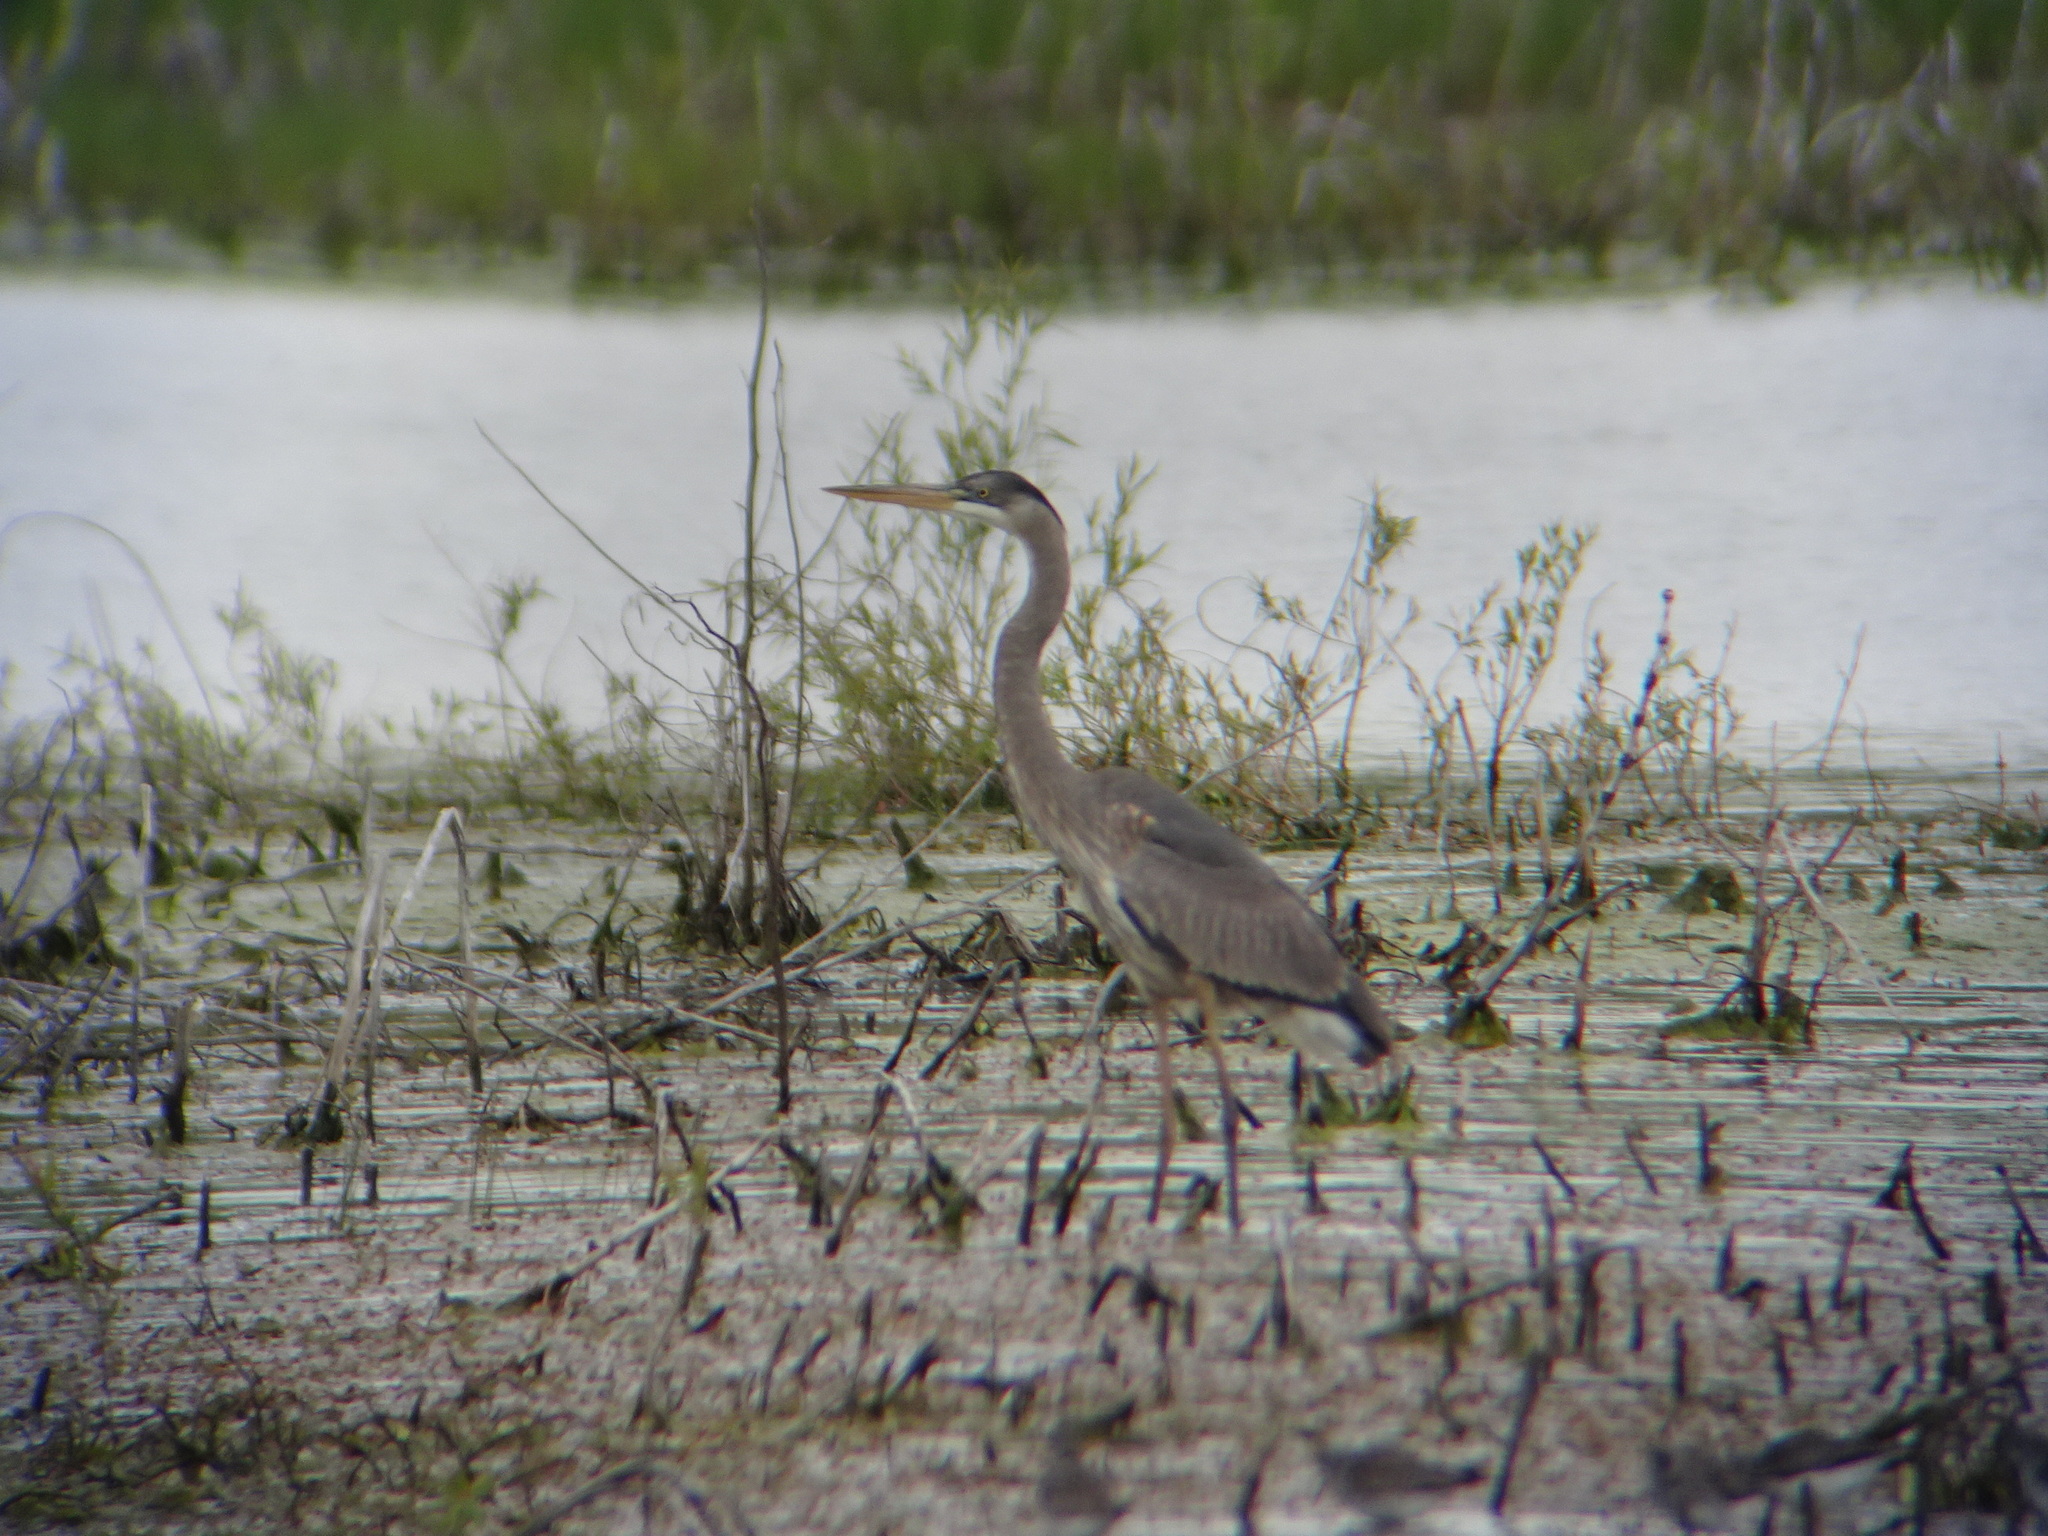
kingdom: Animalia
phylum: Chordata
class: Aves
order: Pelecaniformes
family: Ardeidae
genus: Ardea
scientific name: Ardea herodias
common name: Great blue heron
